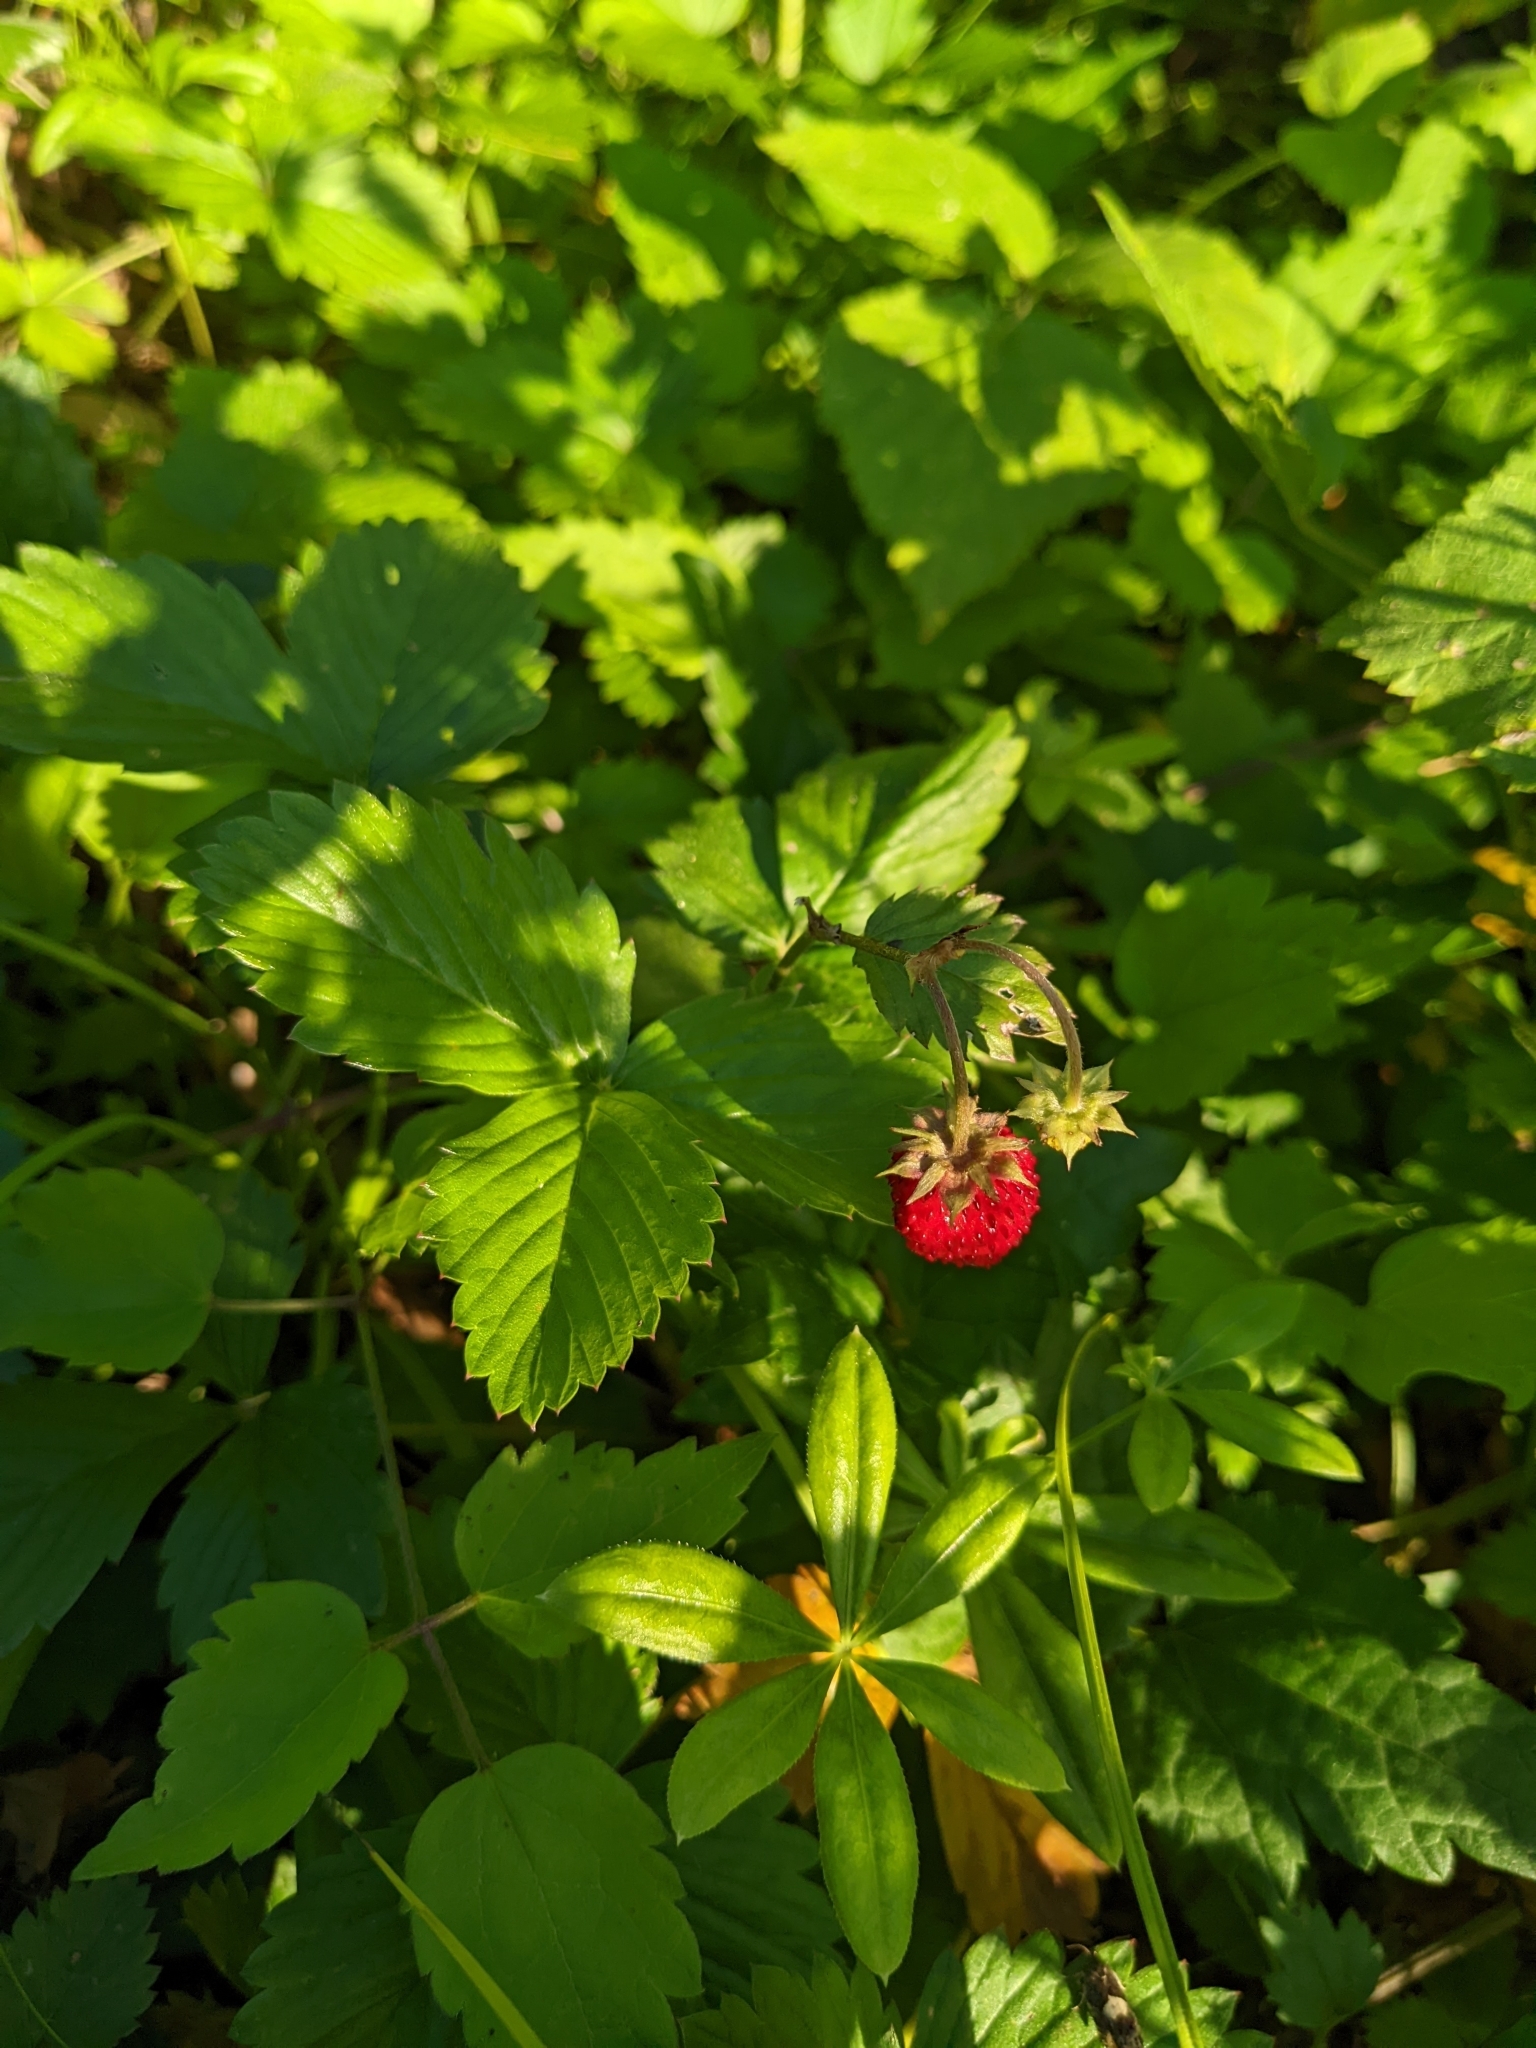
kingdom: Plantae
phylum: Tracheophyta
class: Magnoliopsida
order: Rosales
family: Rosaceae
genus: Fragaria
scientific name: Fragaria vesca
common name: Wild strawberry
